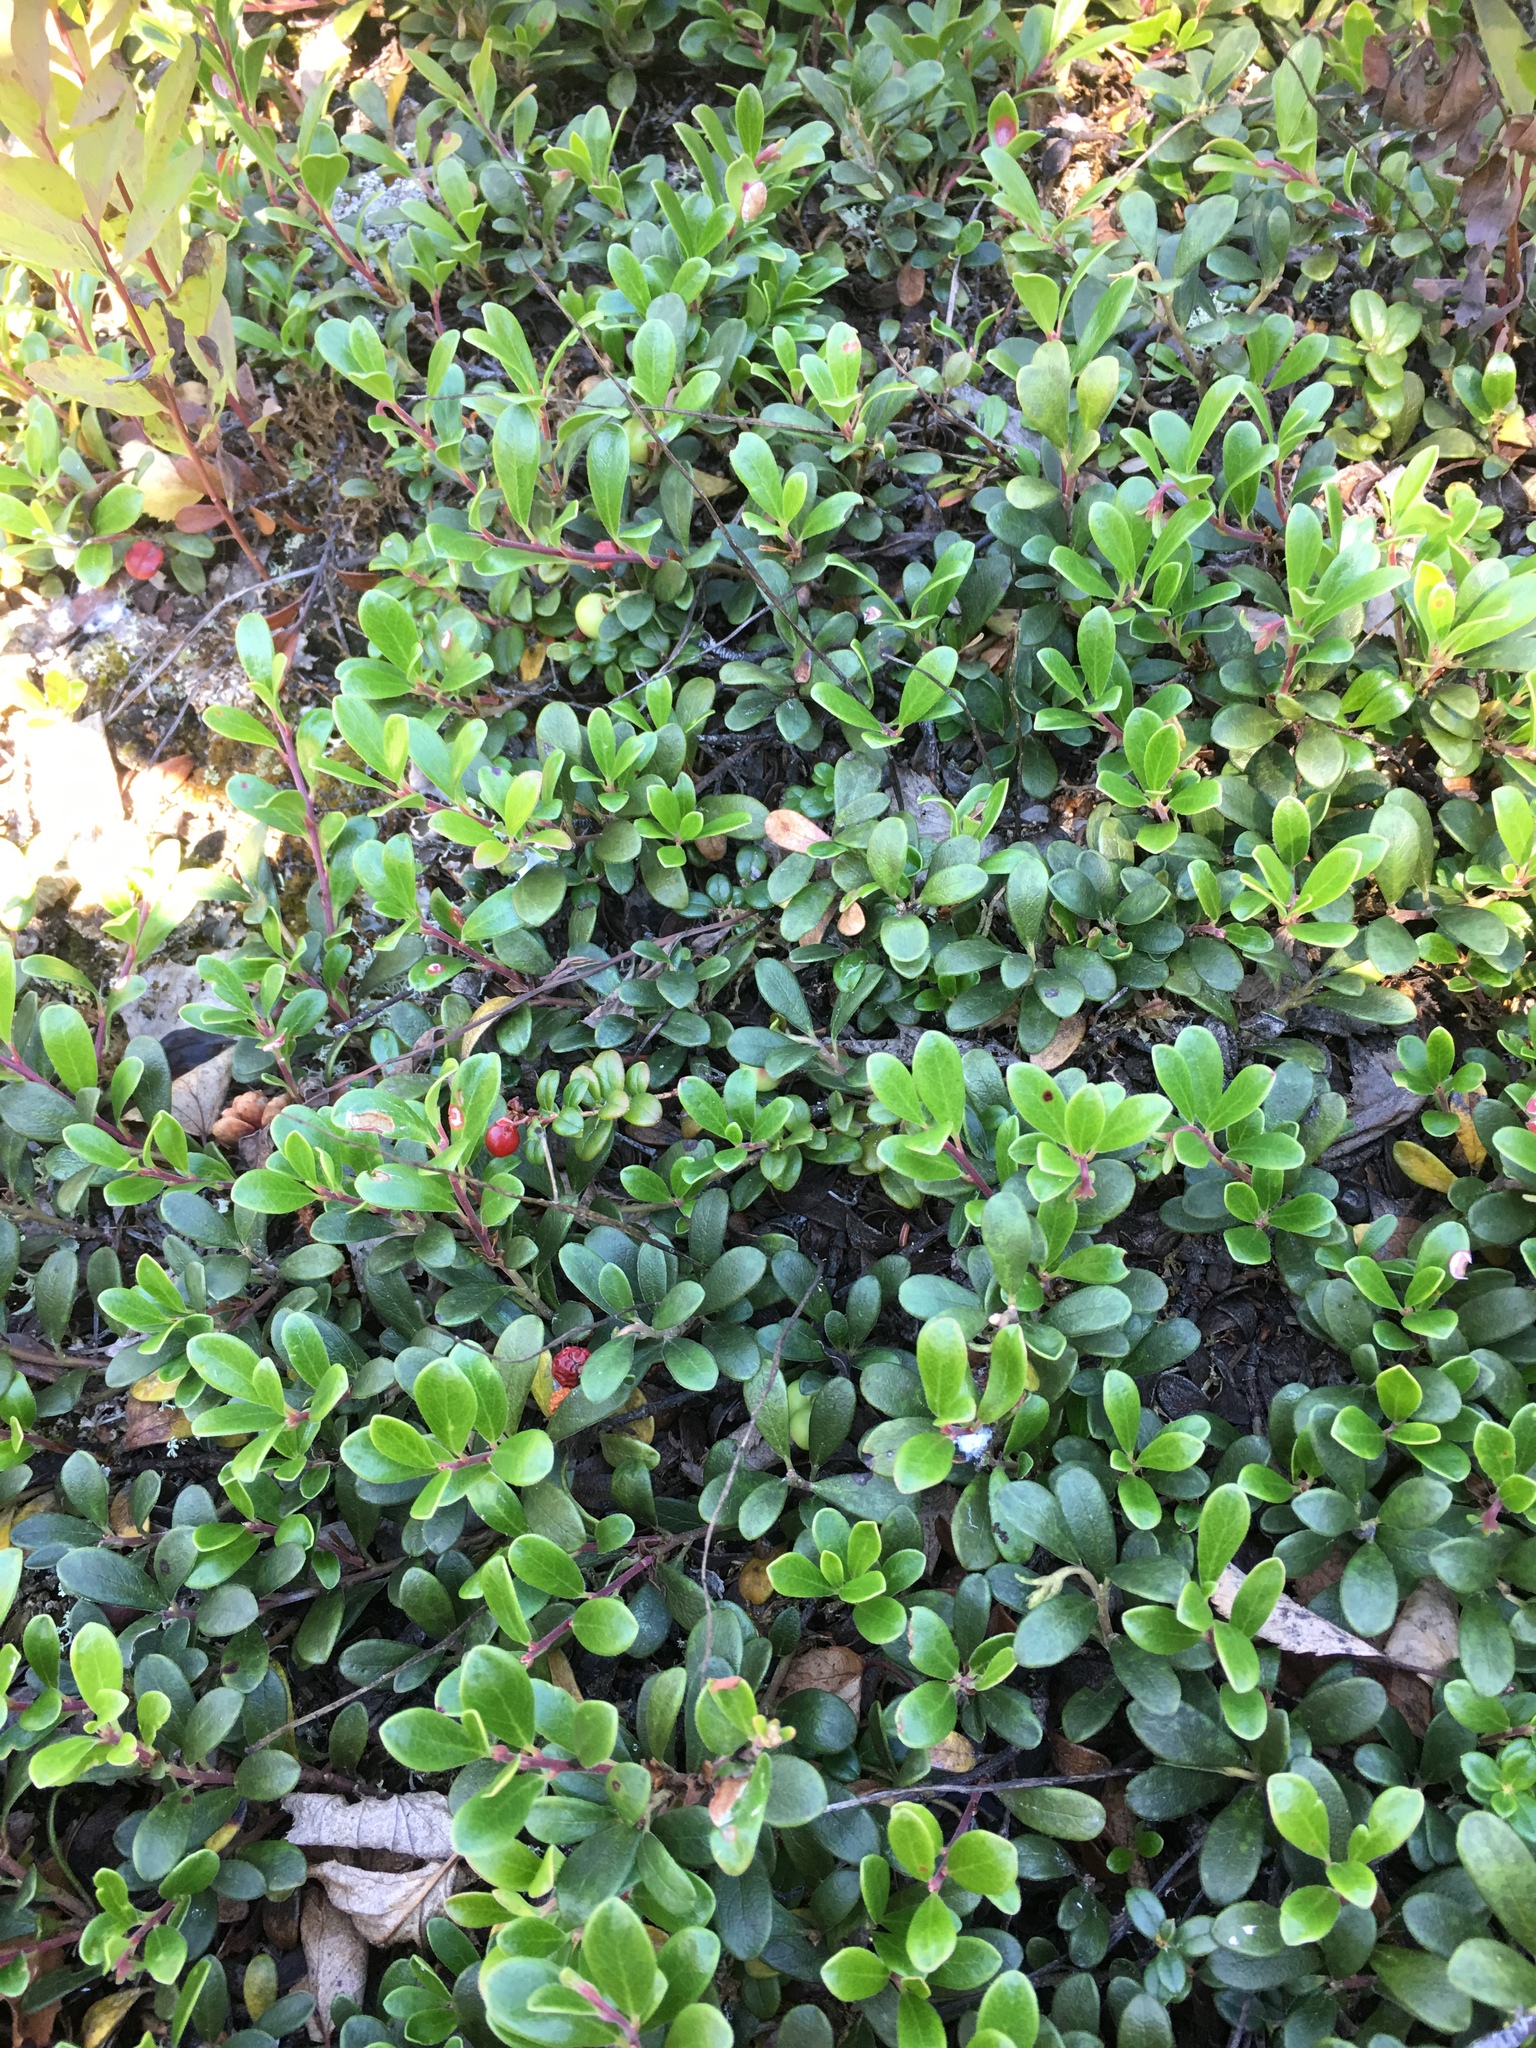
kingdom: Plantae
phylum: Tracheophyta
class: Magnoliopsida
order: Ericales
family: Ericaceae
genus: Arctostaphylos
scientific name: Arctostaphylos uva-ursi
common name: Bearberry
